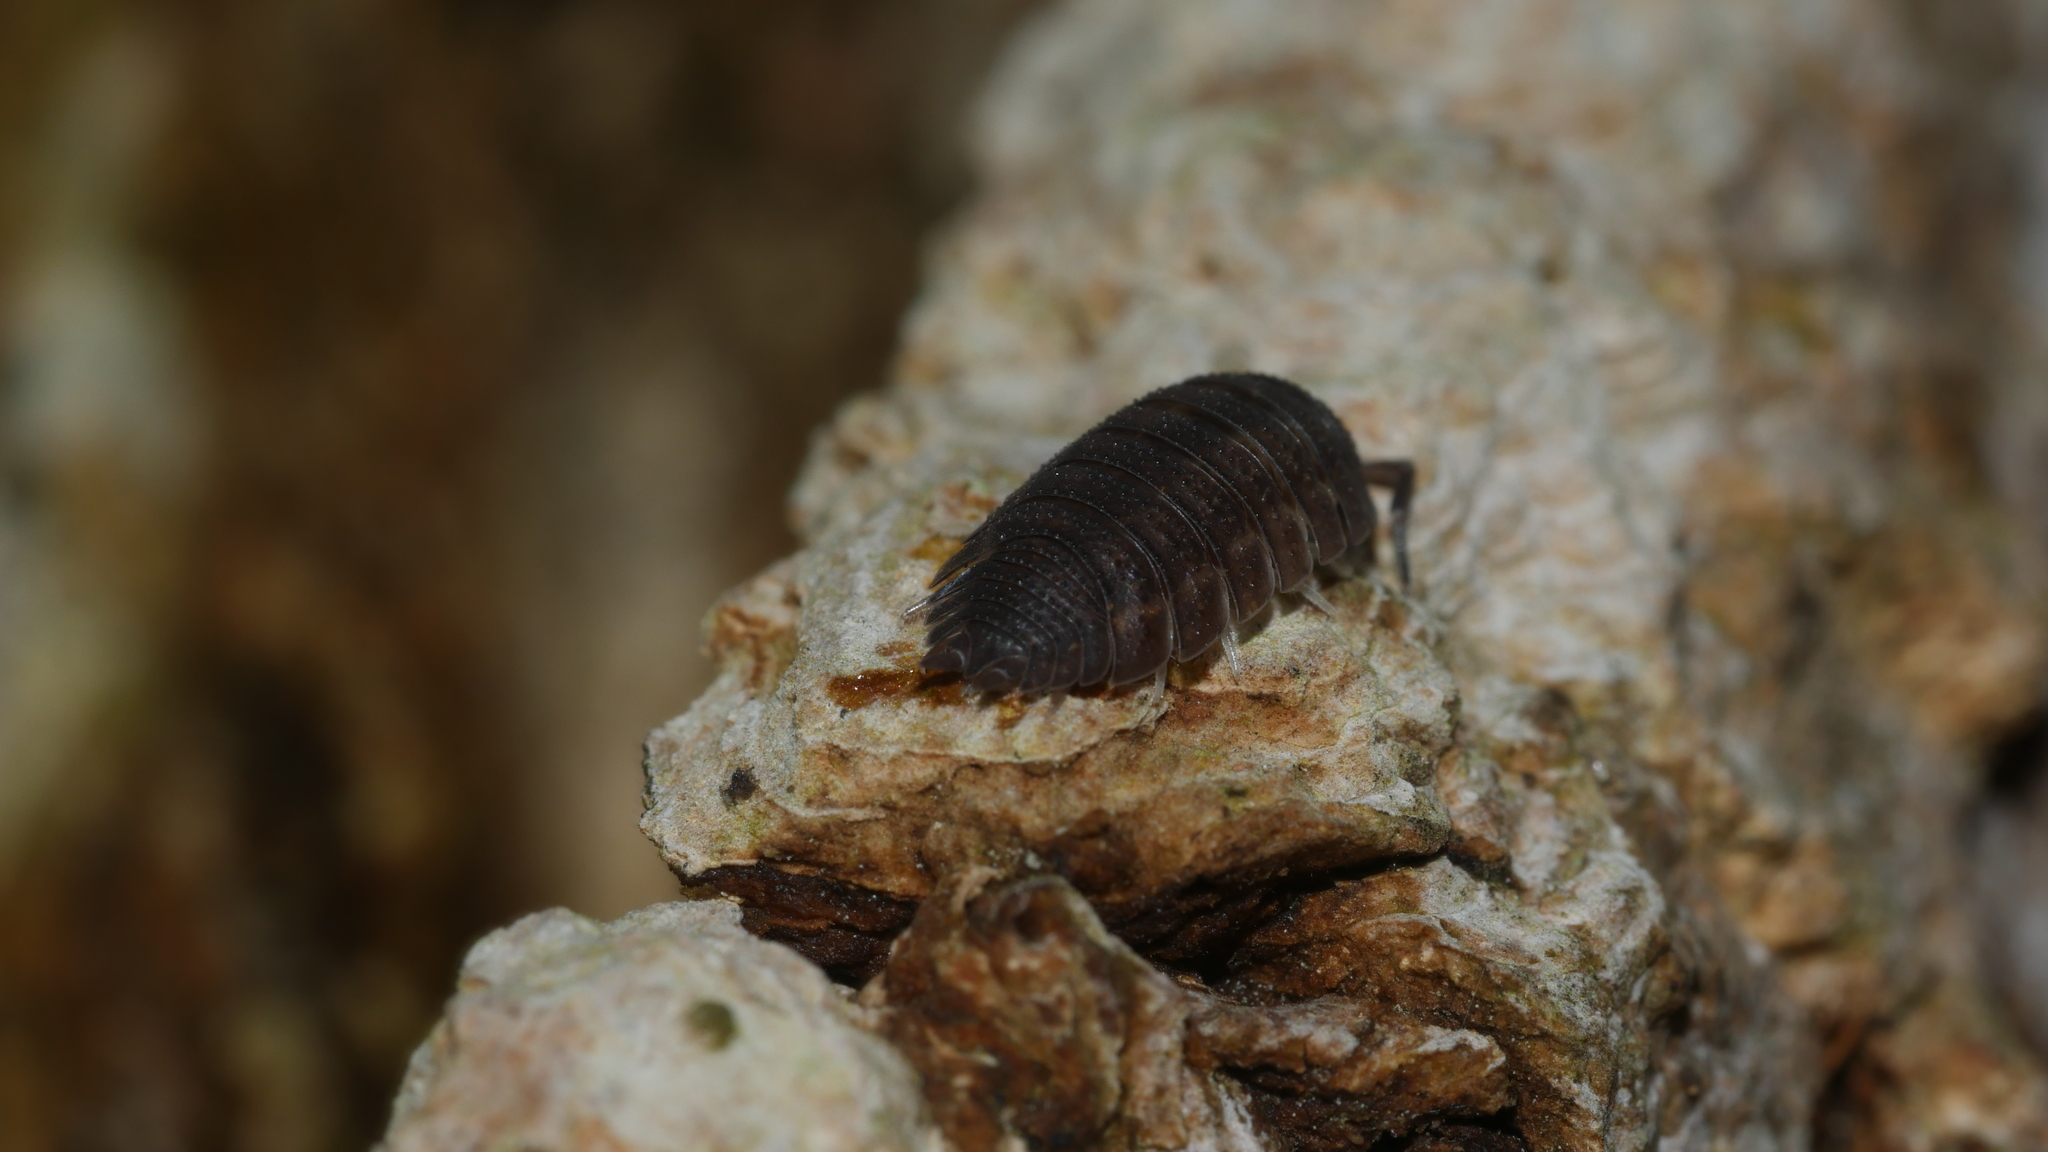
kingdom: Animalia
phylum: Arthropoda
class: Malacostraca
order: Isopoda
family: Porcellionidae
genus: Porcellio
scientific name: Porcellio scaber
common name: Common rough woodlouse
